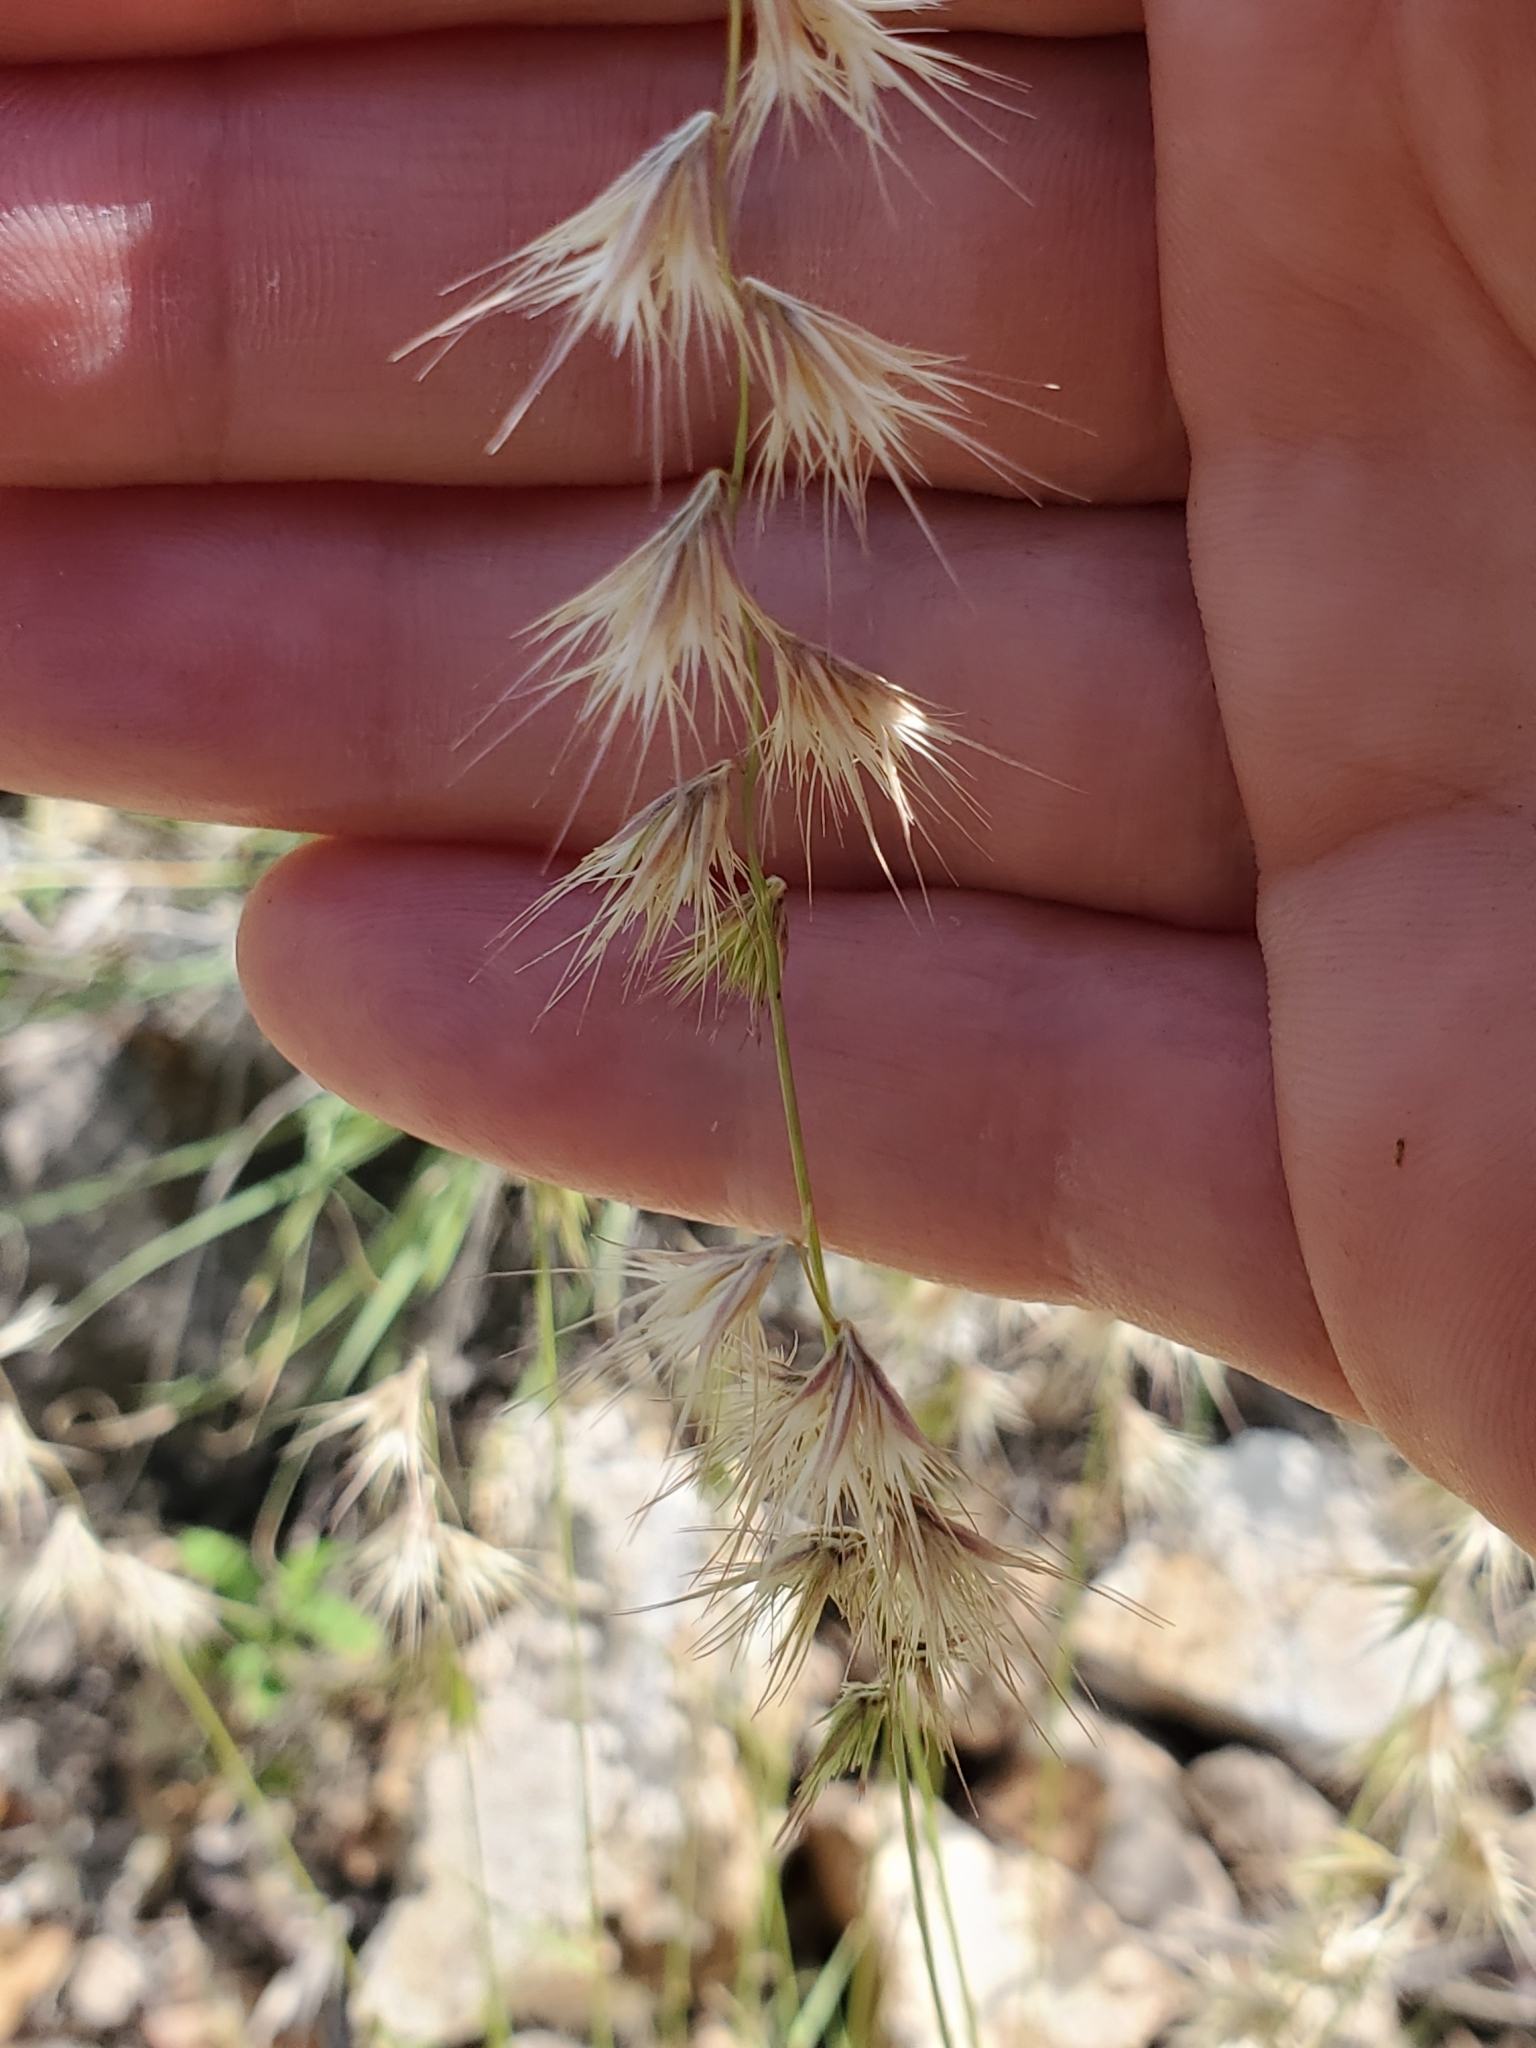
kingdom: Plantae
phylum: Tracheophyta
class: Liliopsida
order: Poales
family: Poaceae
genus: Bouteloua
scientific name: Bouteloua rigidiseta
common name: Texas grama
